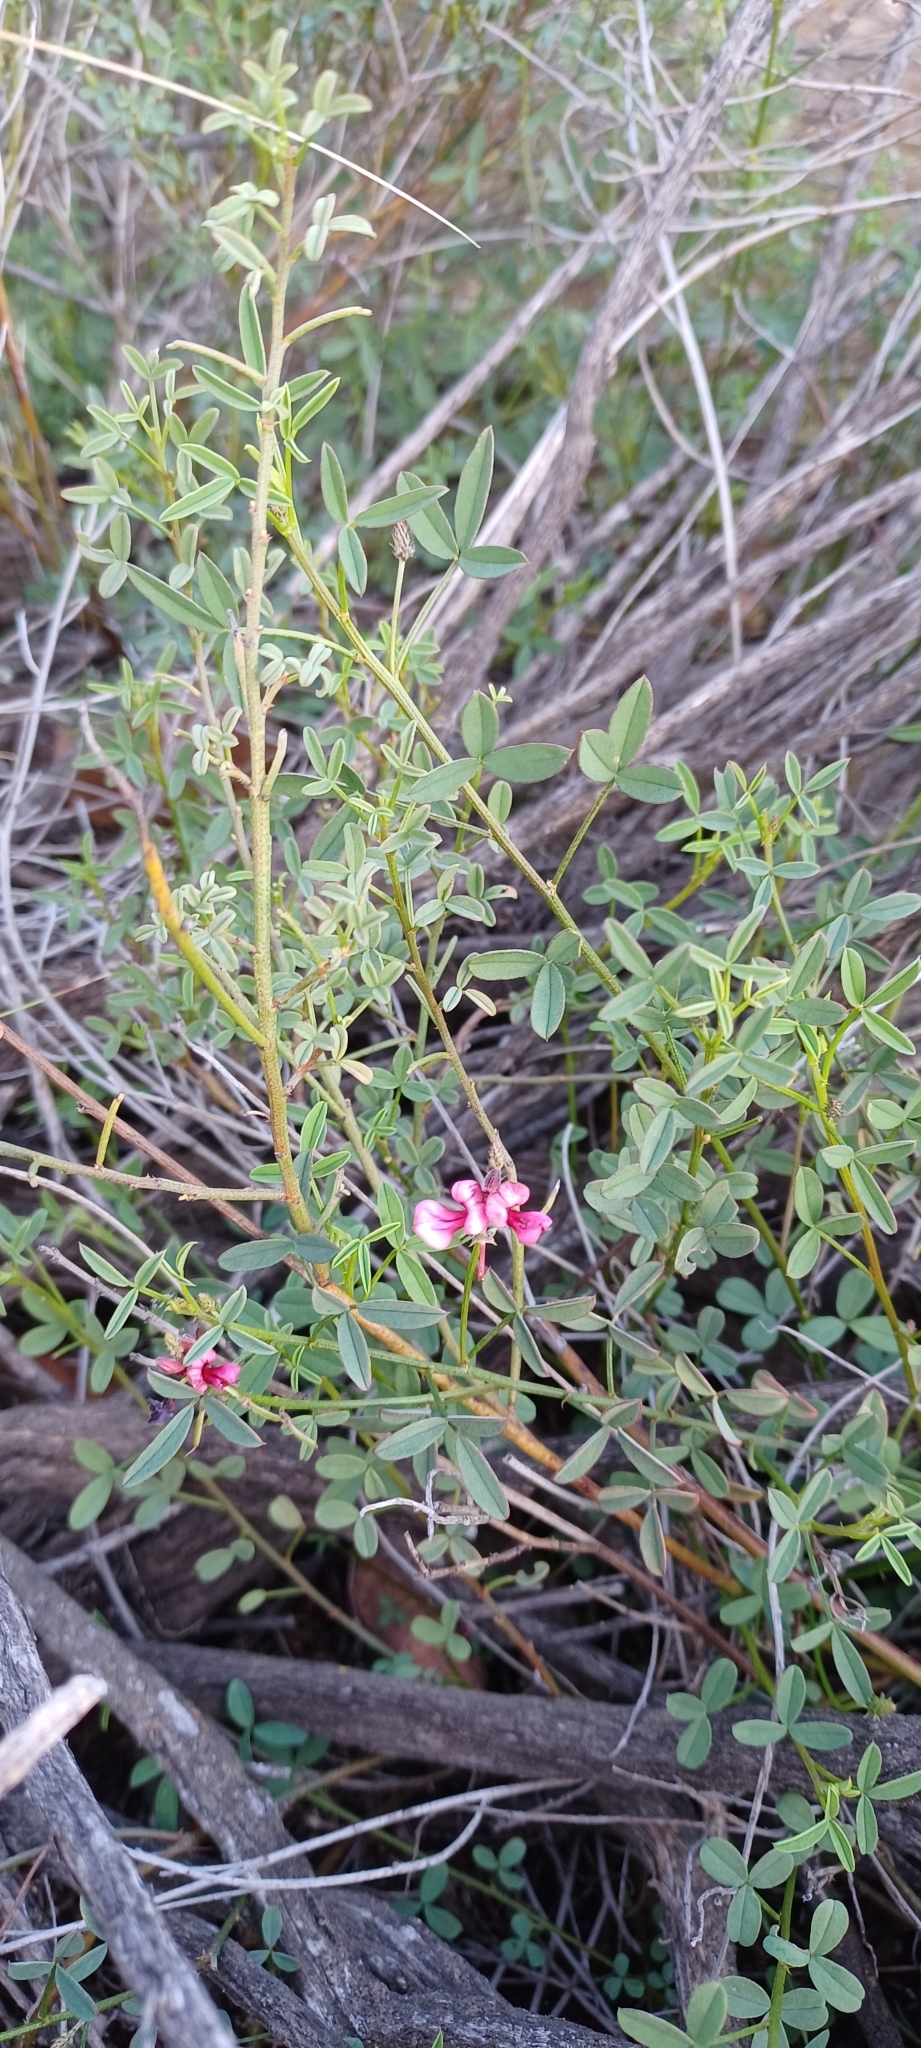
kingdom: Plantae
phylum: Tracheophyta
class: Magnoliopsida
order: Fabales
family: Fabaceae
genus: Indigofera
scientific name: Indigofera heterophylla
